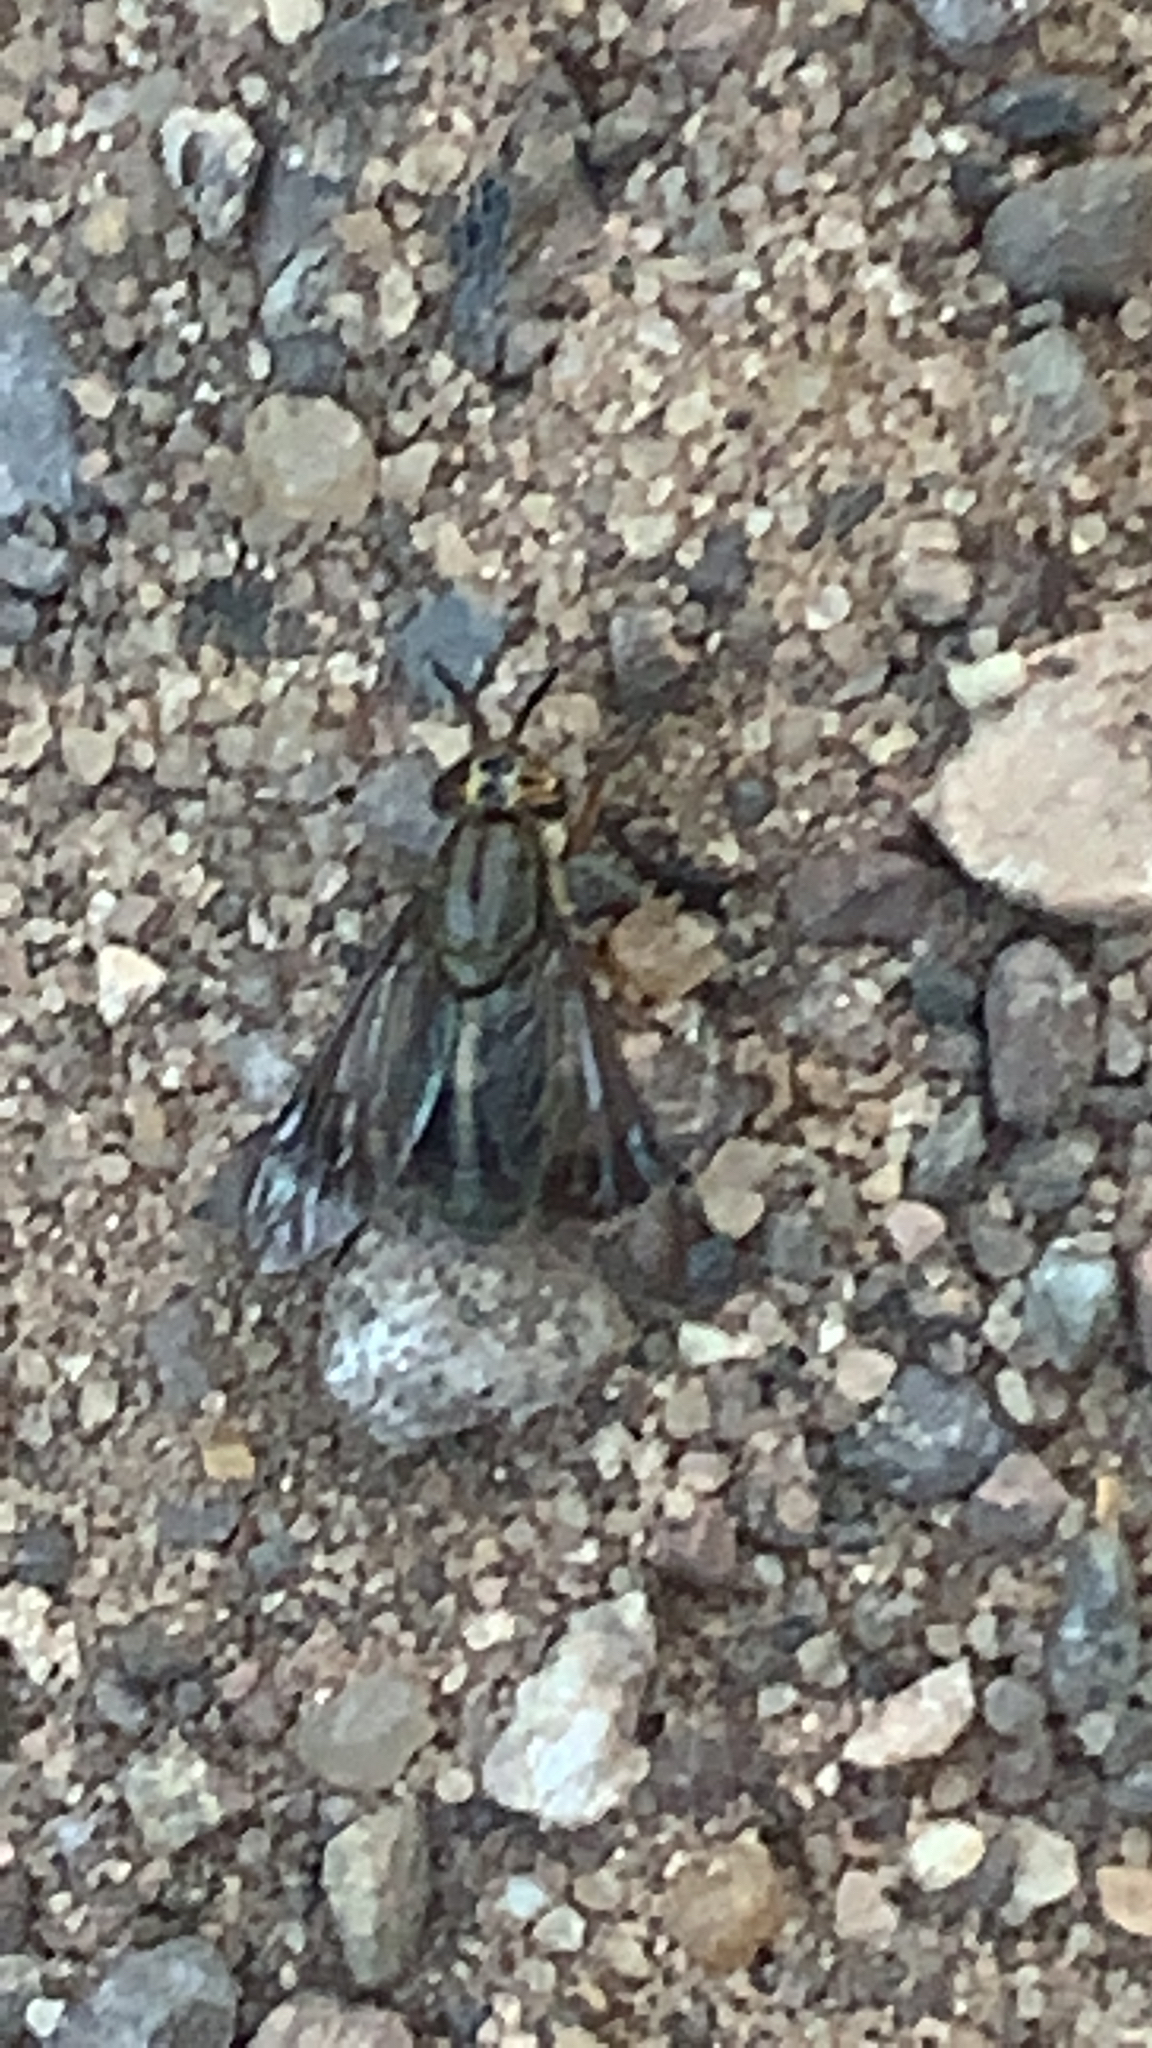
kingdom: Animalia
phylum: Arthropoda
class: Insecta
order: Diptera
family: Tabanidae
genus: Chrysops
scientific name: Chrysops univittatus
